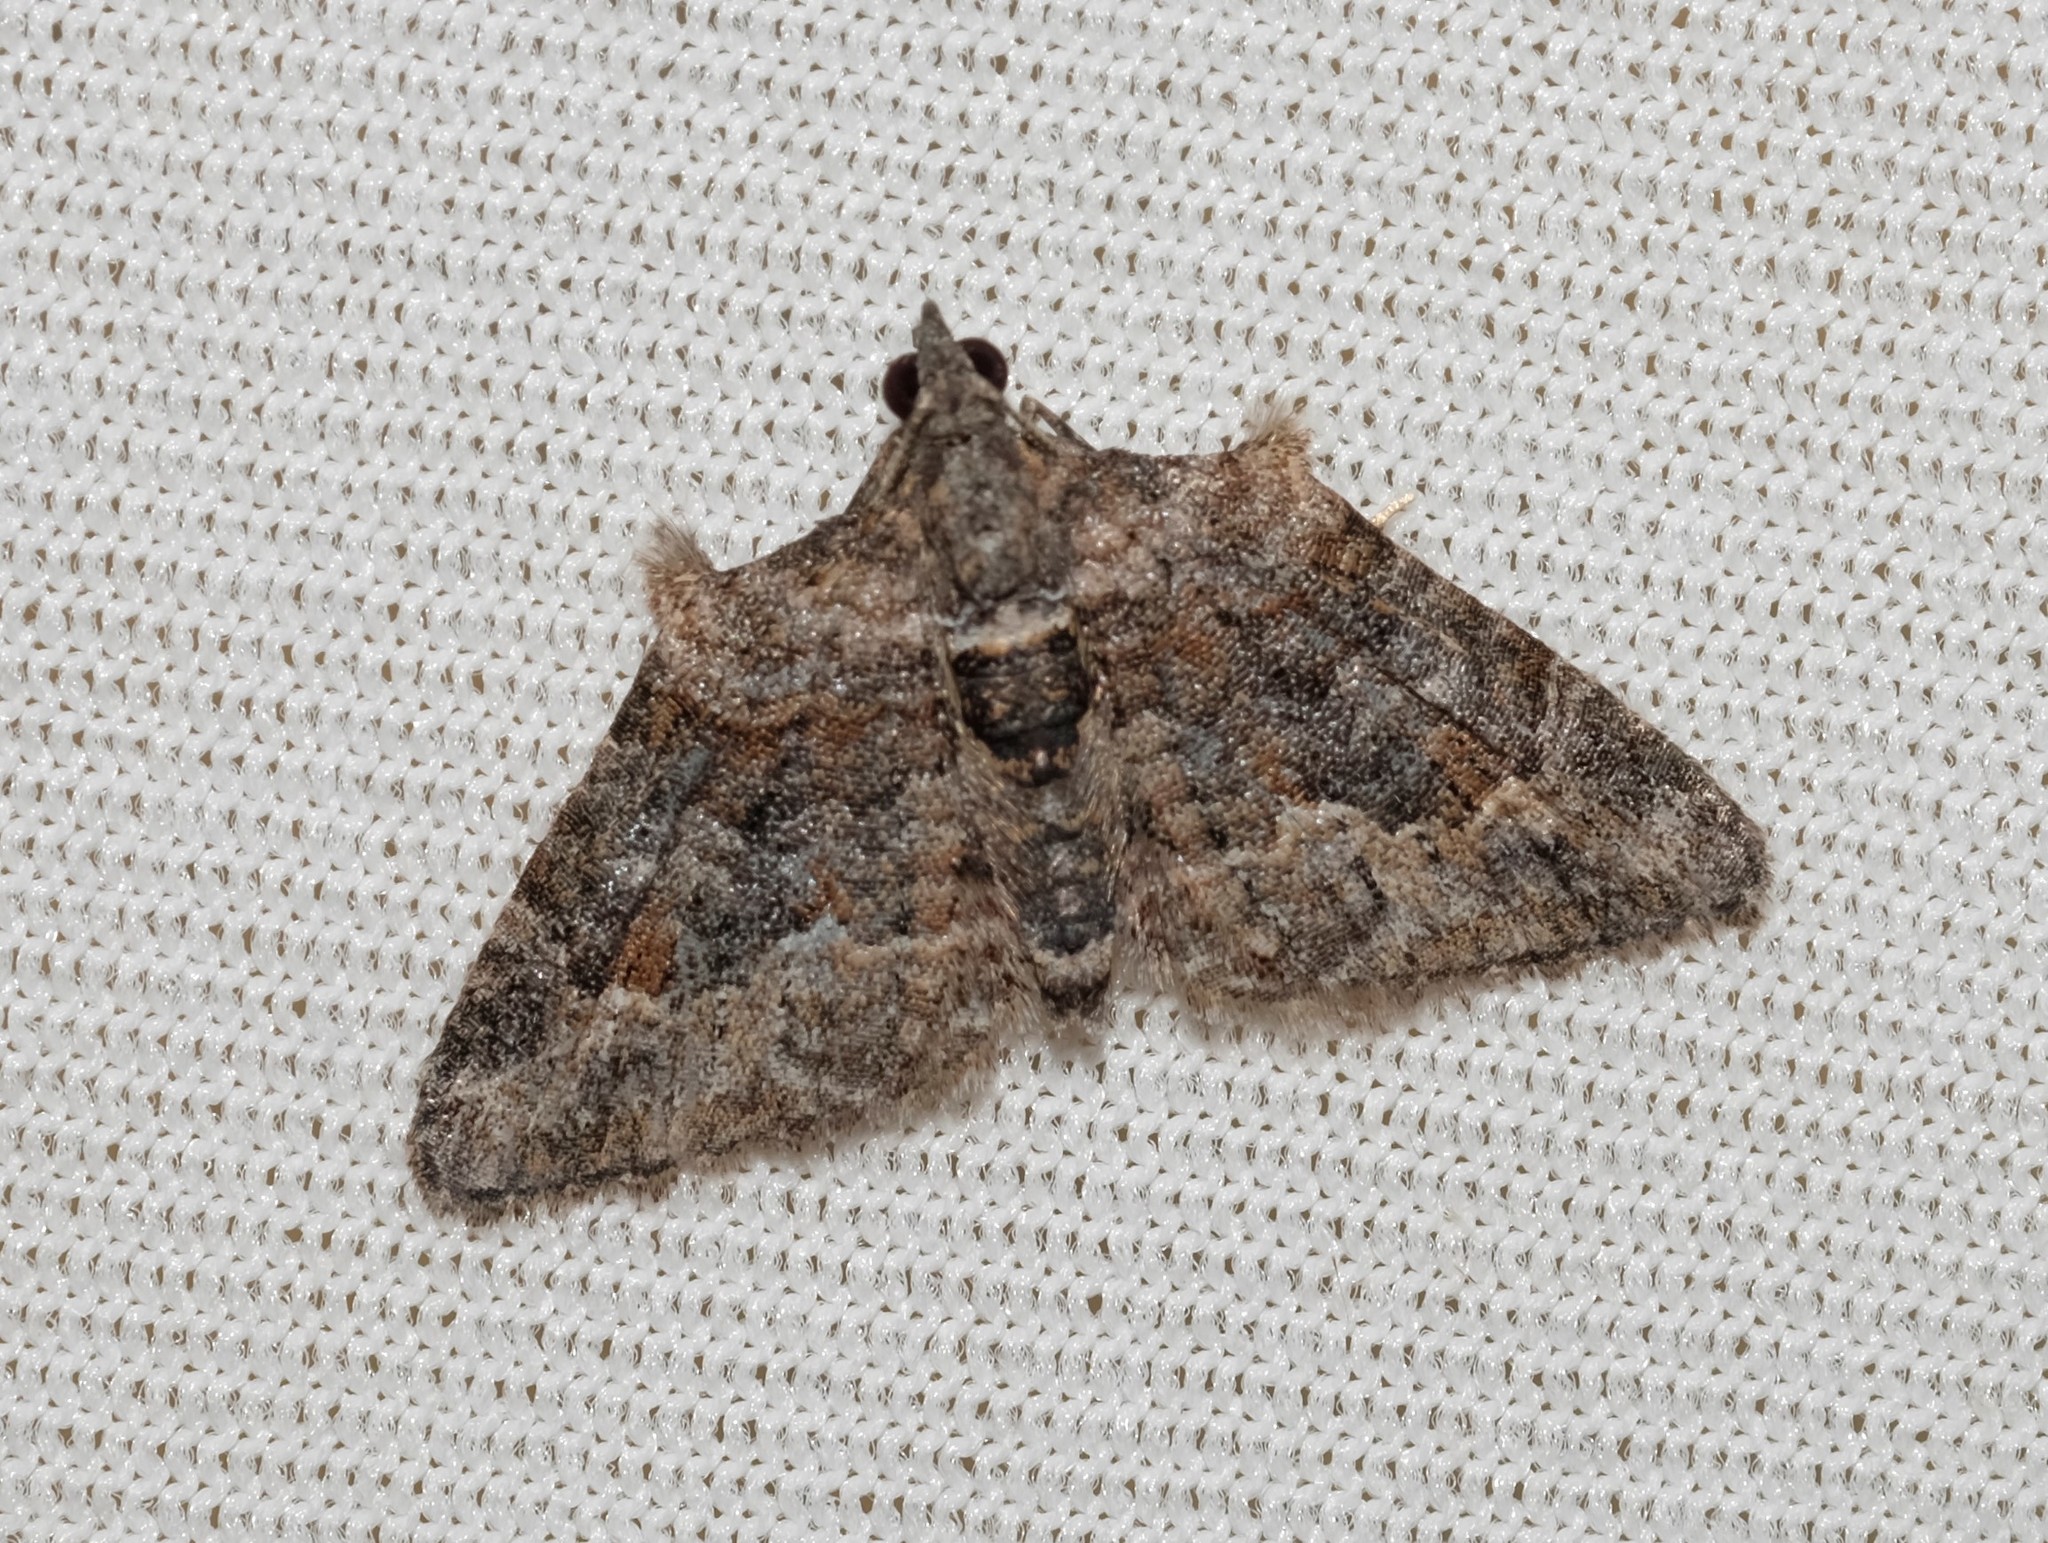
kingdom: Animalia
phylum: Arthropoda
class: Insecta
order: Lepidoptera
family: Geometridae
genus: Phrissogonus
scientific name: Phrissogonus laticostata
